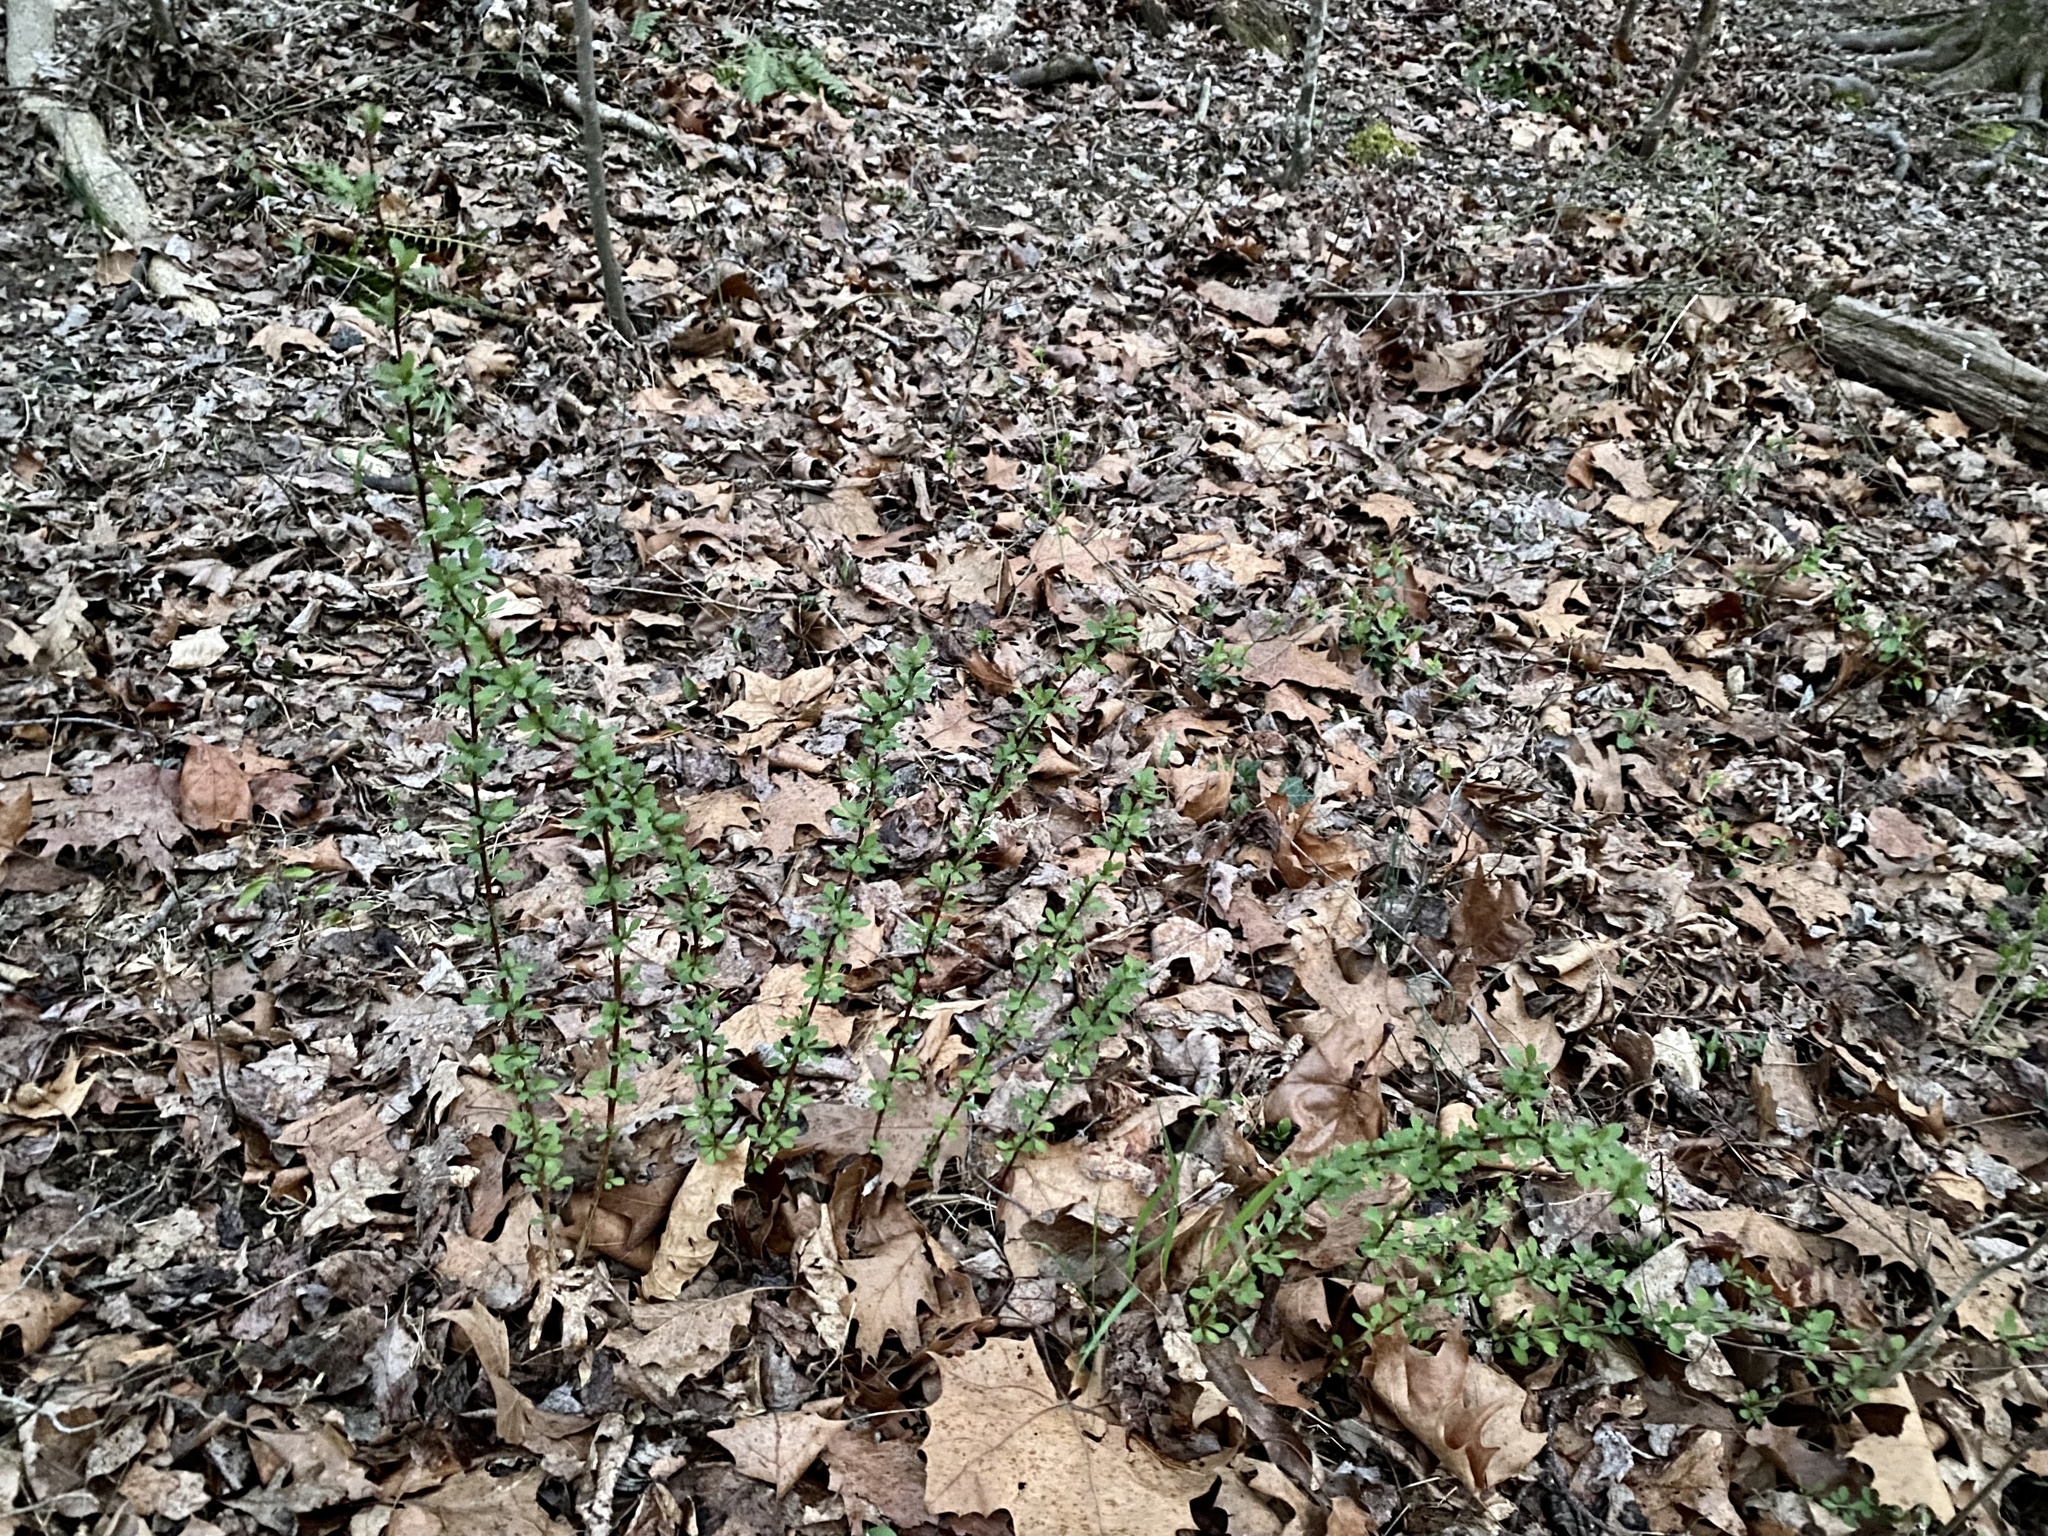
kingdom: Plantae
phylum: Tracheophyta
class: Magnoliopsida
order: Ranunculales
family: Berberidaceae
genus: Berberis
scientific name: Berberis thunbergii
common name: Japanese barberry
